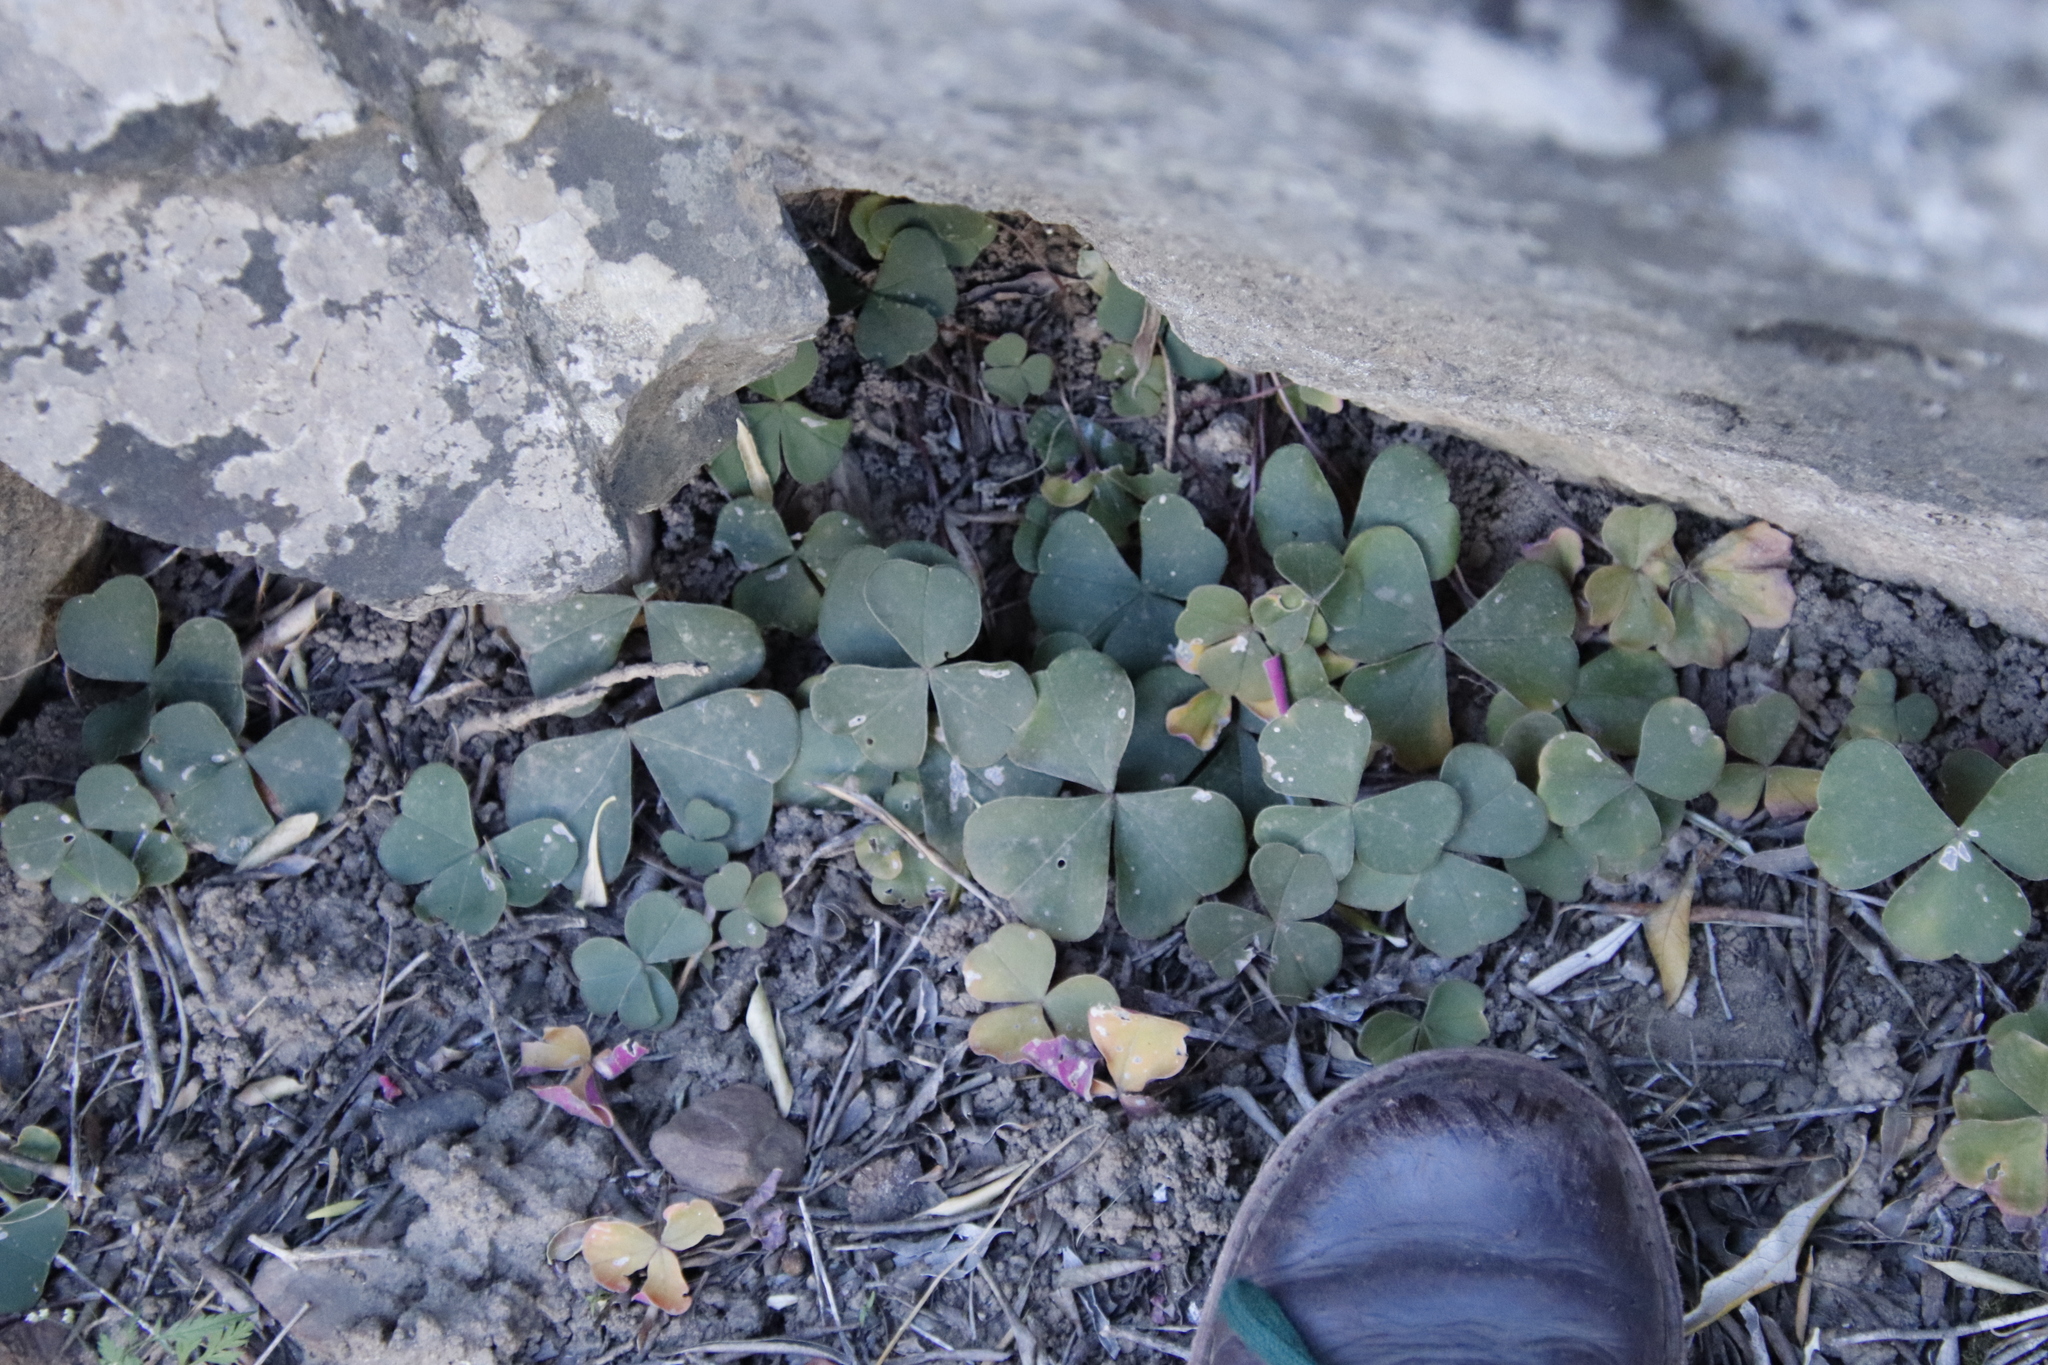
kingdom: Plantae
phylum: Tracheophyta
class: Magnoliopsida
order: Oxalidales
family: Oxalidaceae
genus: Oxalis
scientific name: Oxalis purpurata
